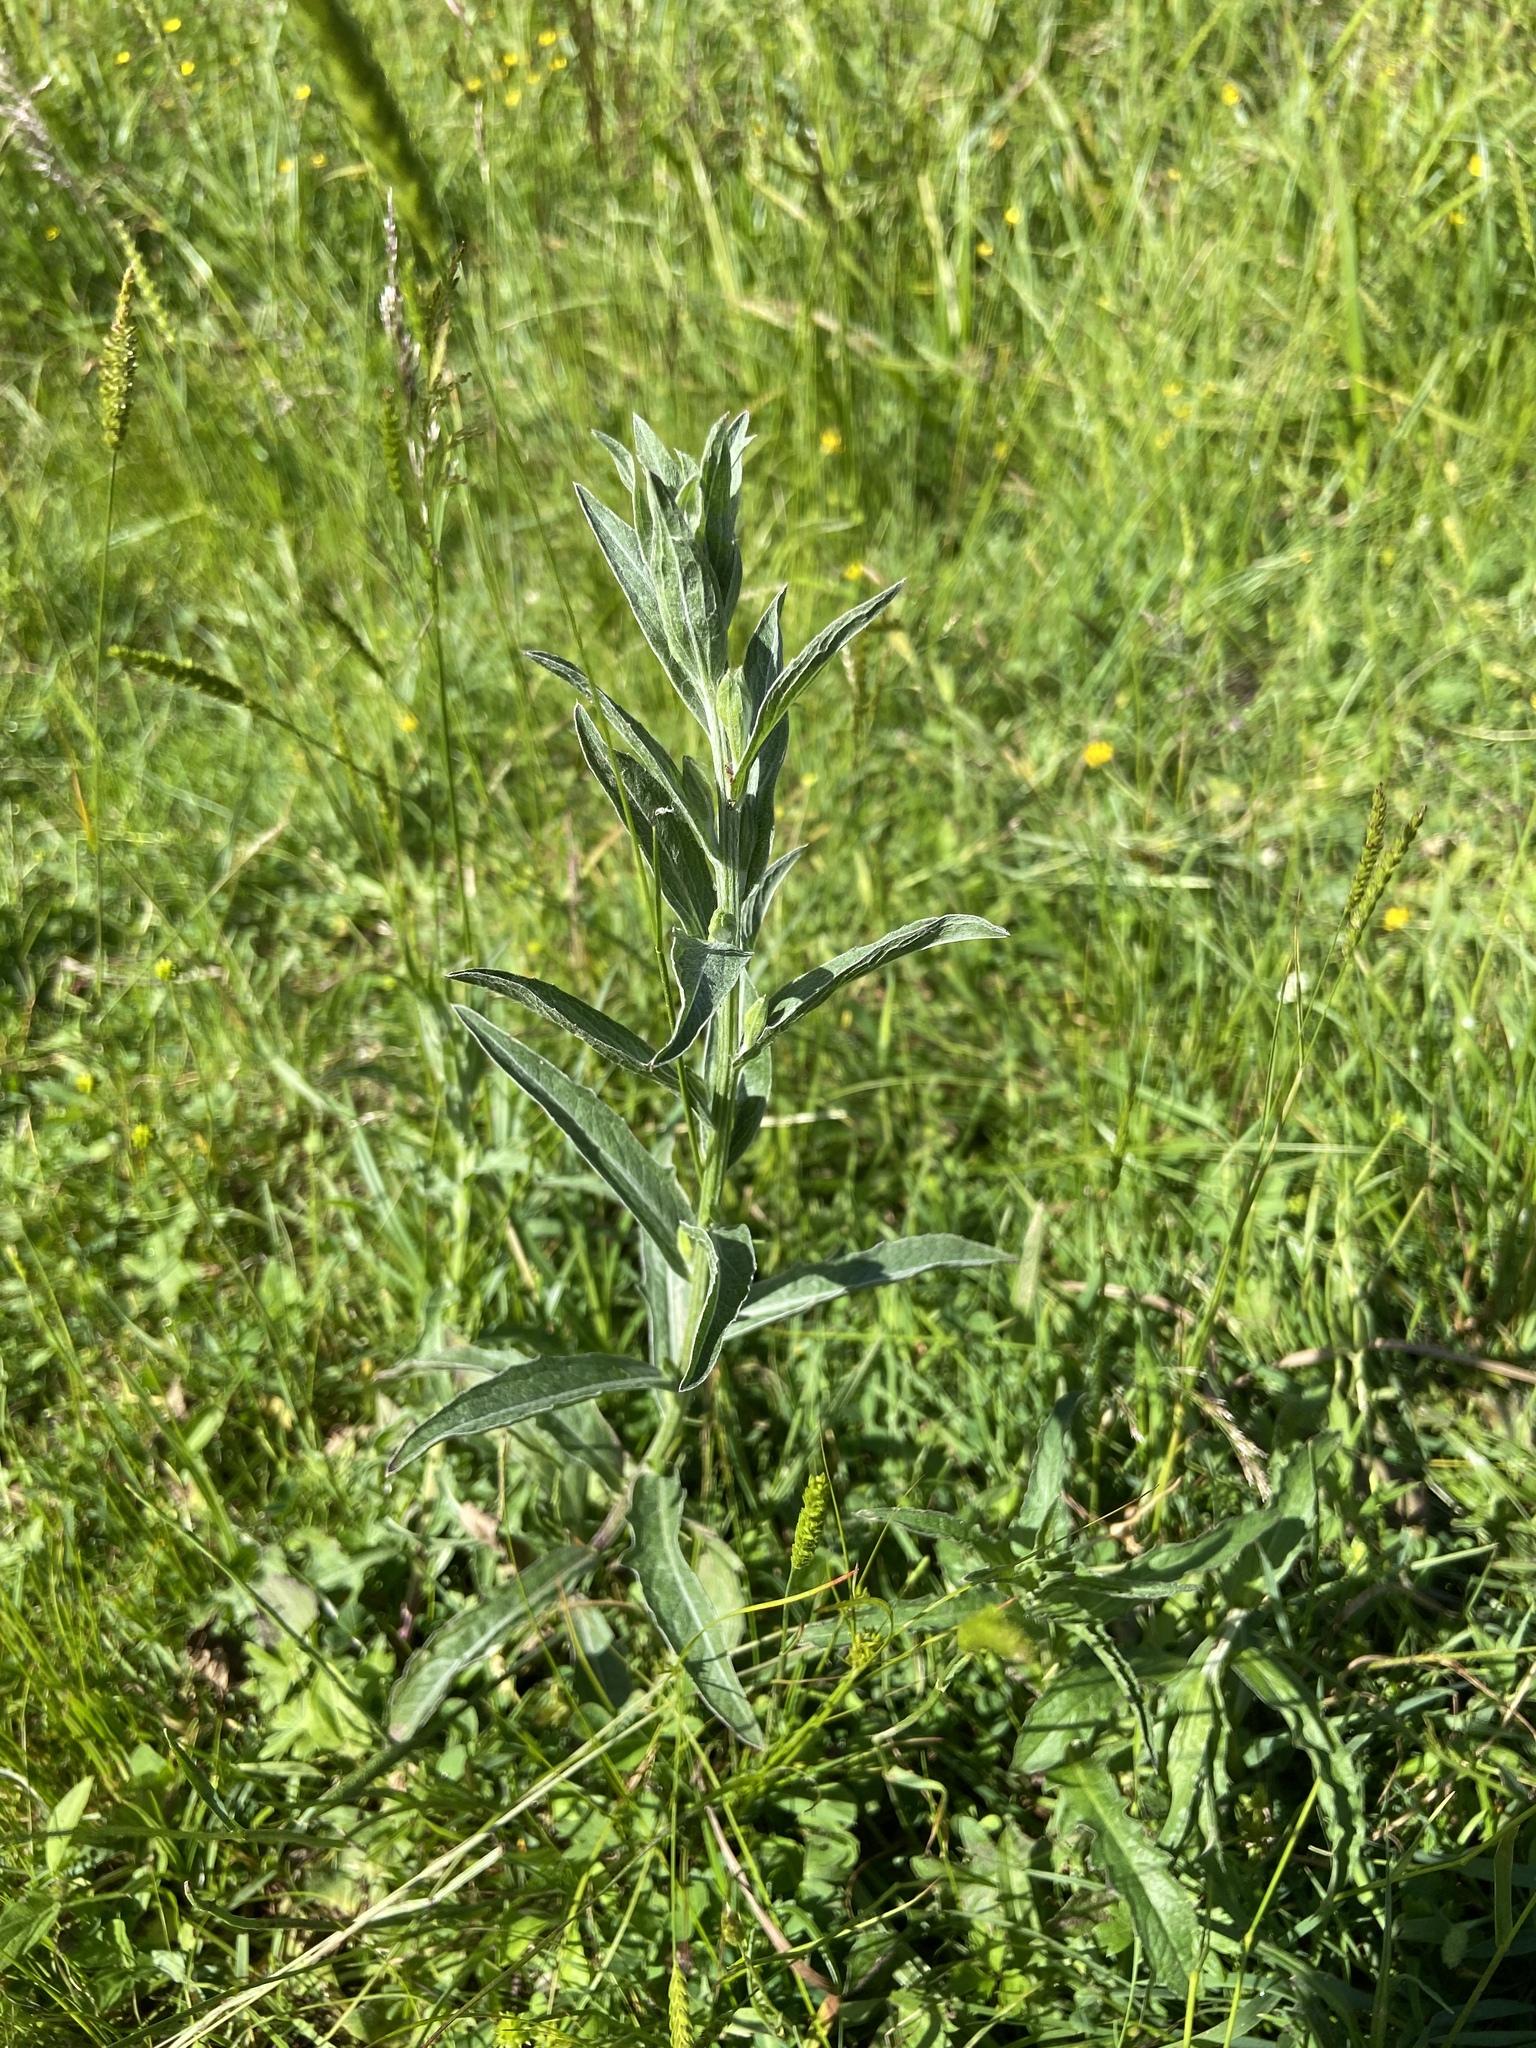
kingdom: Plantae
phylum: Tracheophyta
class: Magnoliopsida
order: Asterales
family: Asteraceae
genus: Centaurea
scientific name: Centaurea jacea
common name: Brown knapweed
